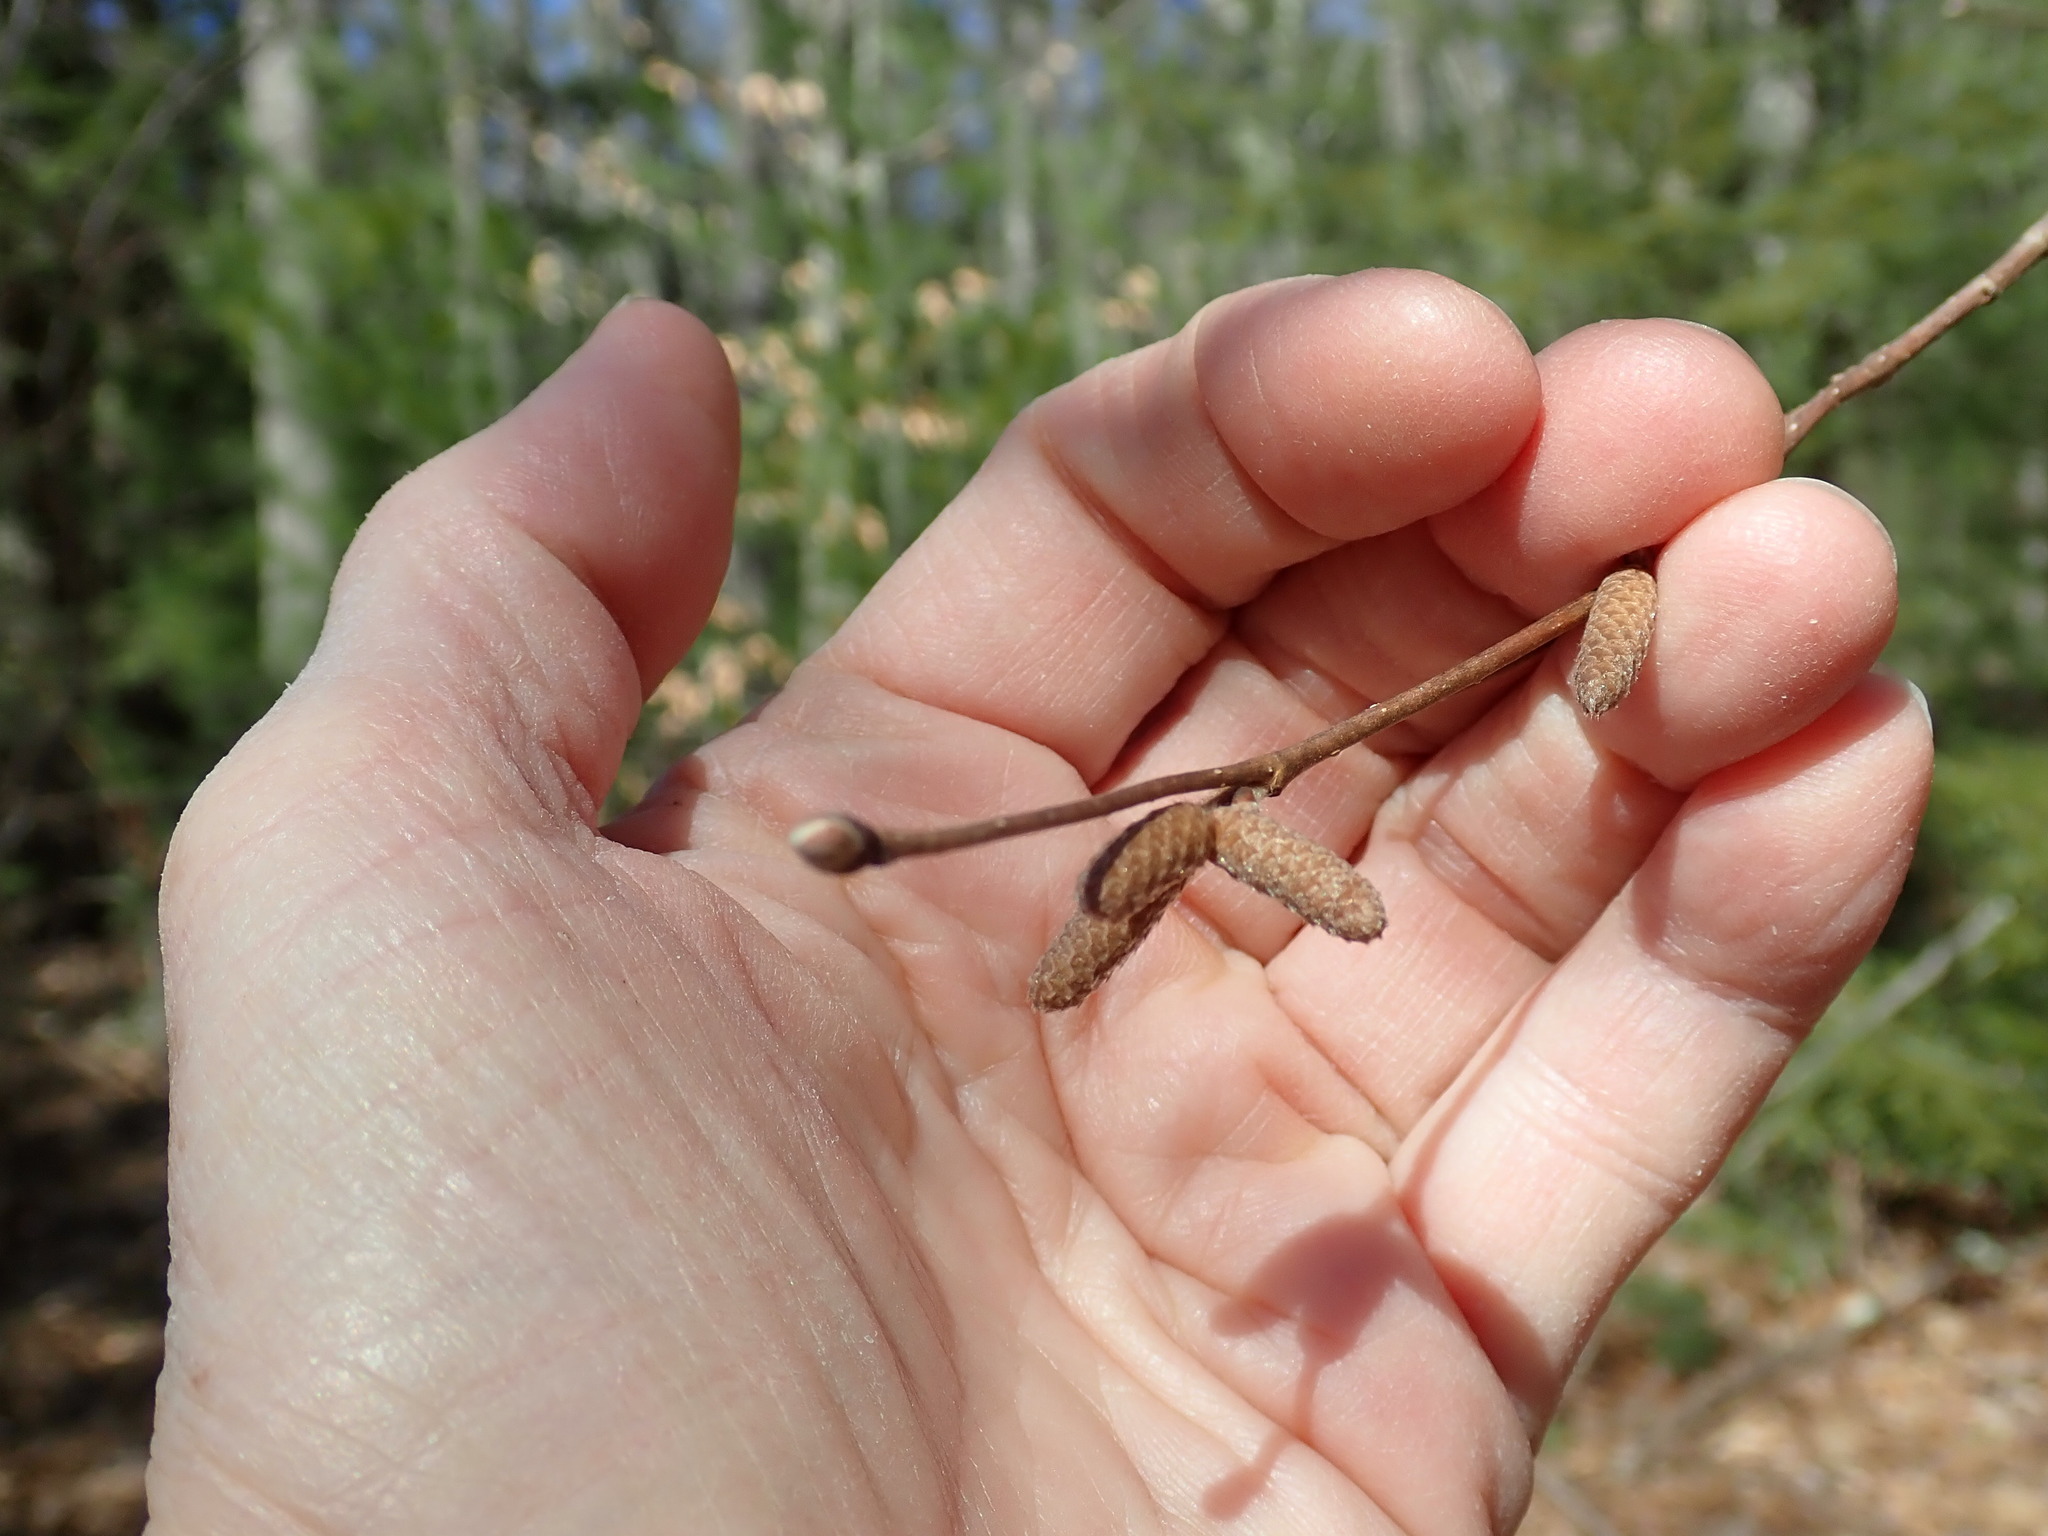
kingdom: Plantae
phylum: Tracheophyta
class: Magnoliopsida
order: Fagales
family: Betulaceae
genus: Corylus
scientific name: Corylus cornuta
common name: Beaked hazel
